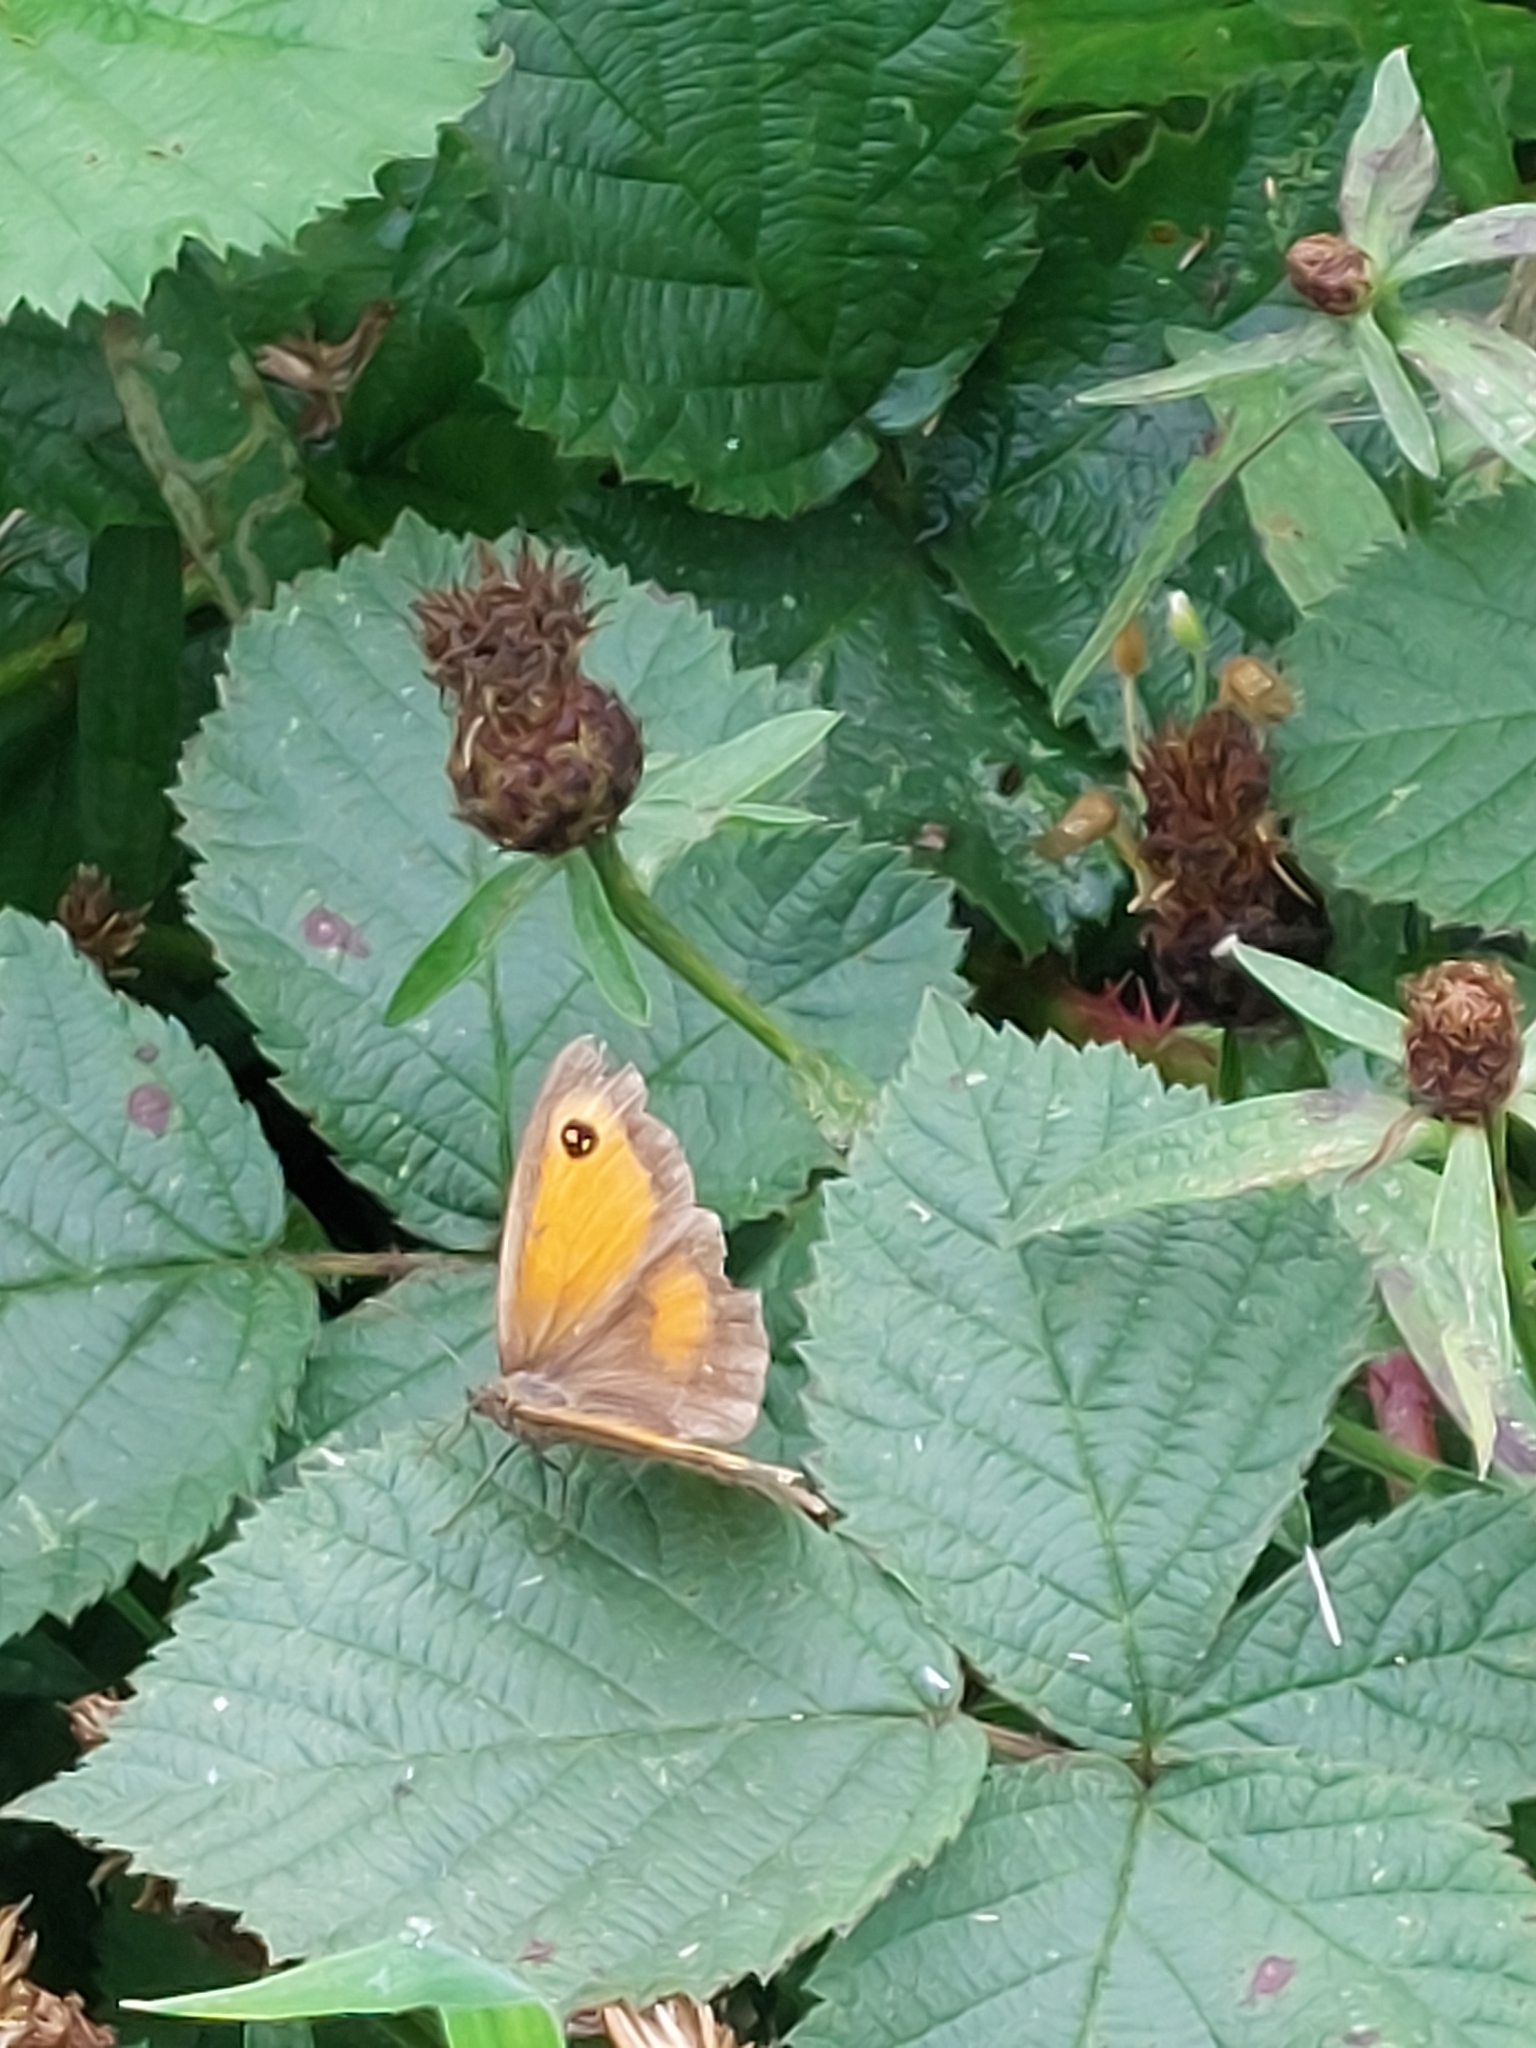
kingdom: Animalia
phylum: Arthropoda
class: Insecta
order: Lepidoptera
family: Nymphalidae
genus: Pyronia
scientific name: Pyronia tithonus
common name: Gatekeeper
